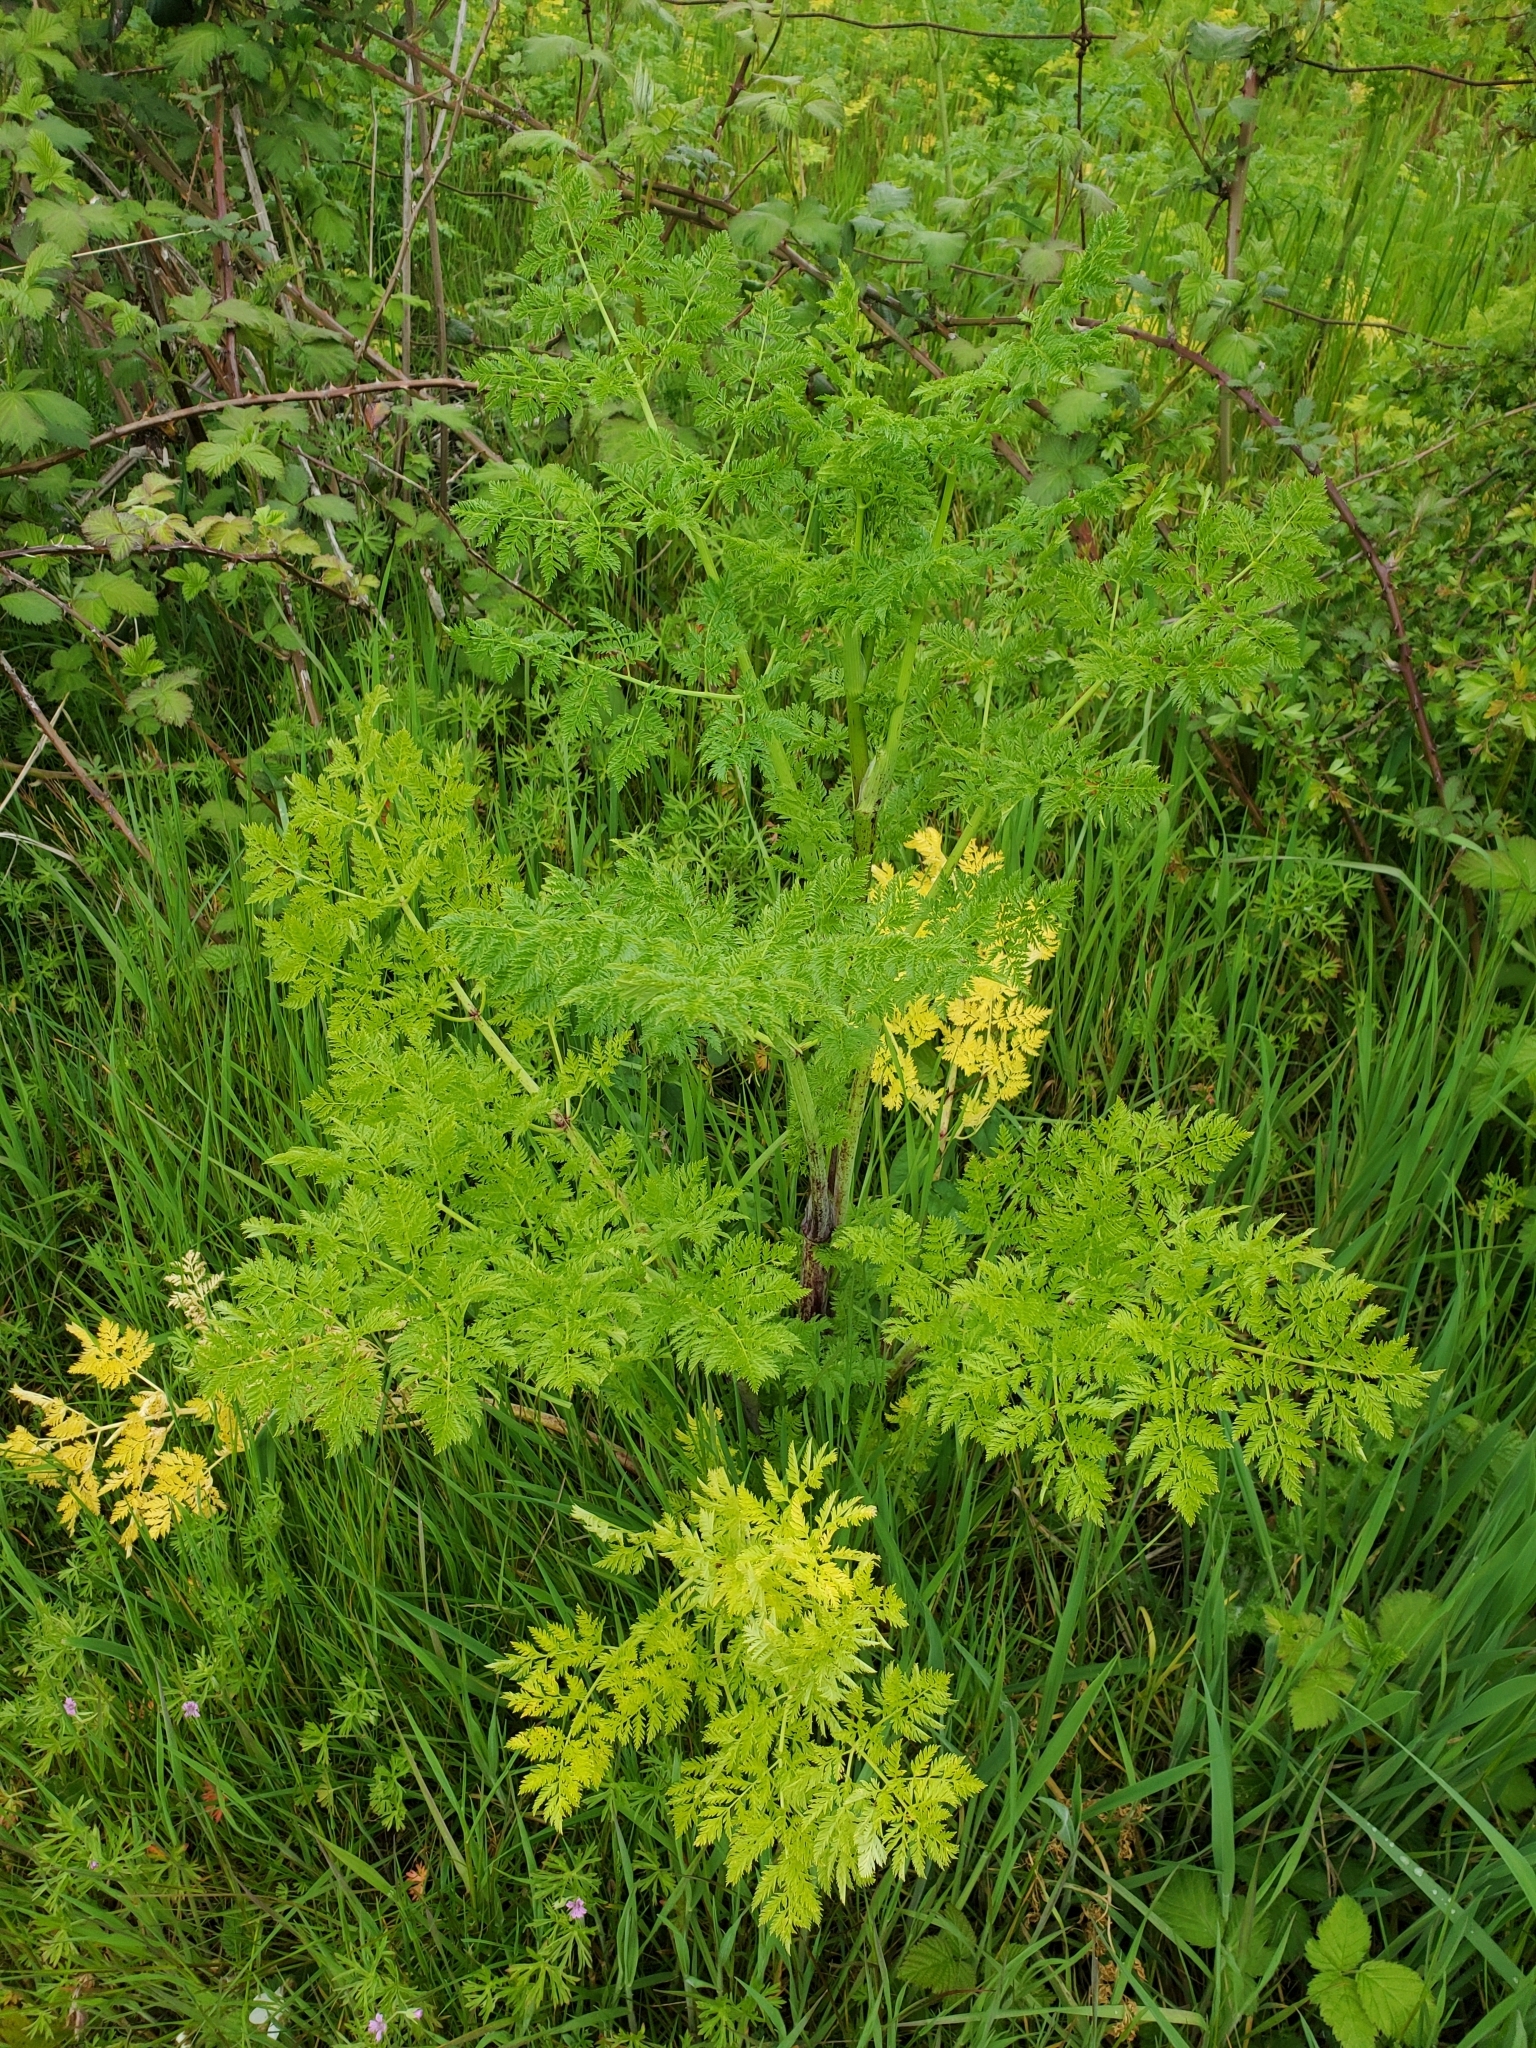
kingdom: Plantae
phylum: Tracheophyta
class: Magnoliopsida
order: Apiales
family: Apiaceae
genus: Conium
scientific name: Conium maculatum
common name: Hemlock
